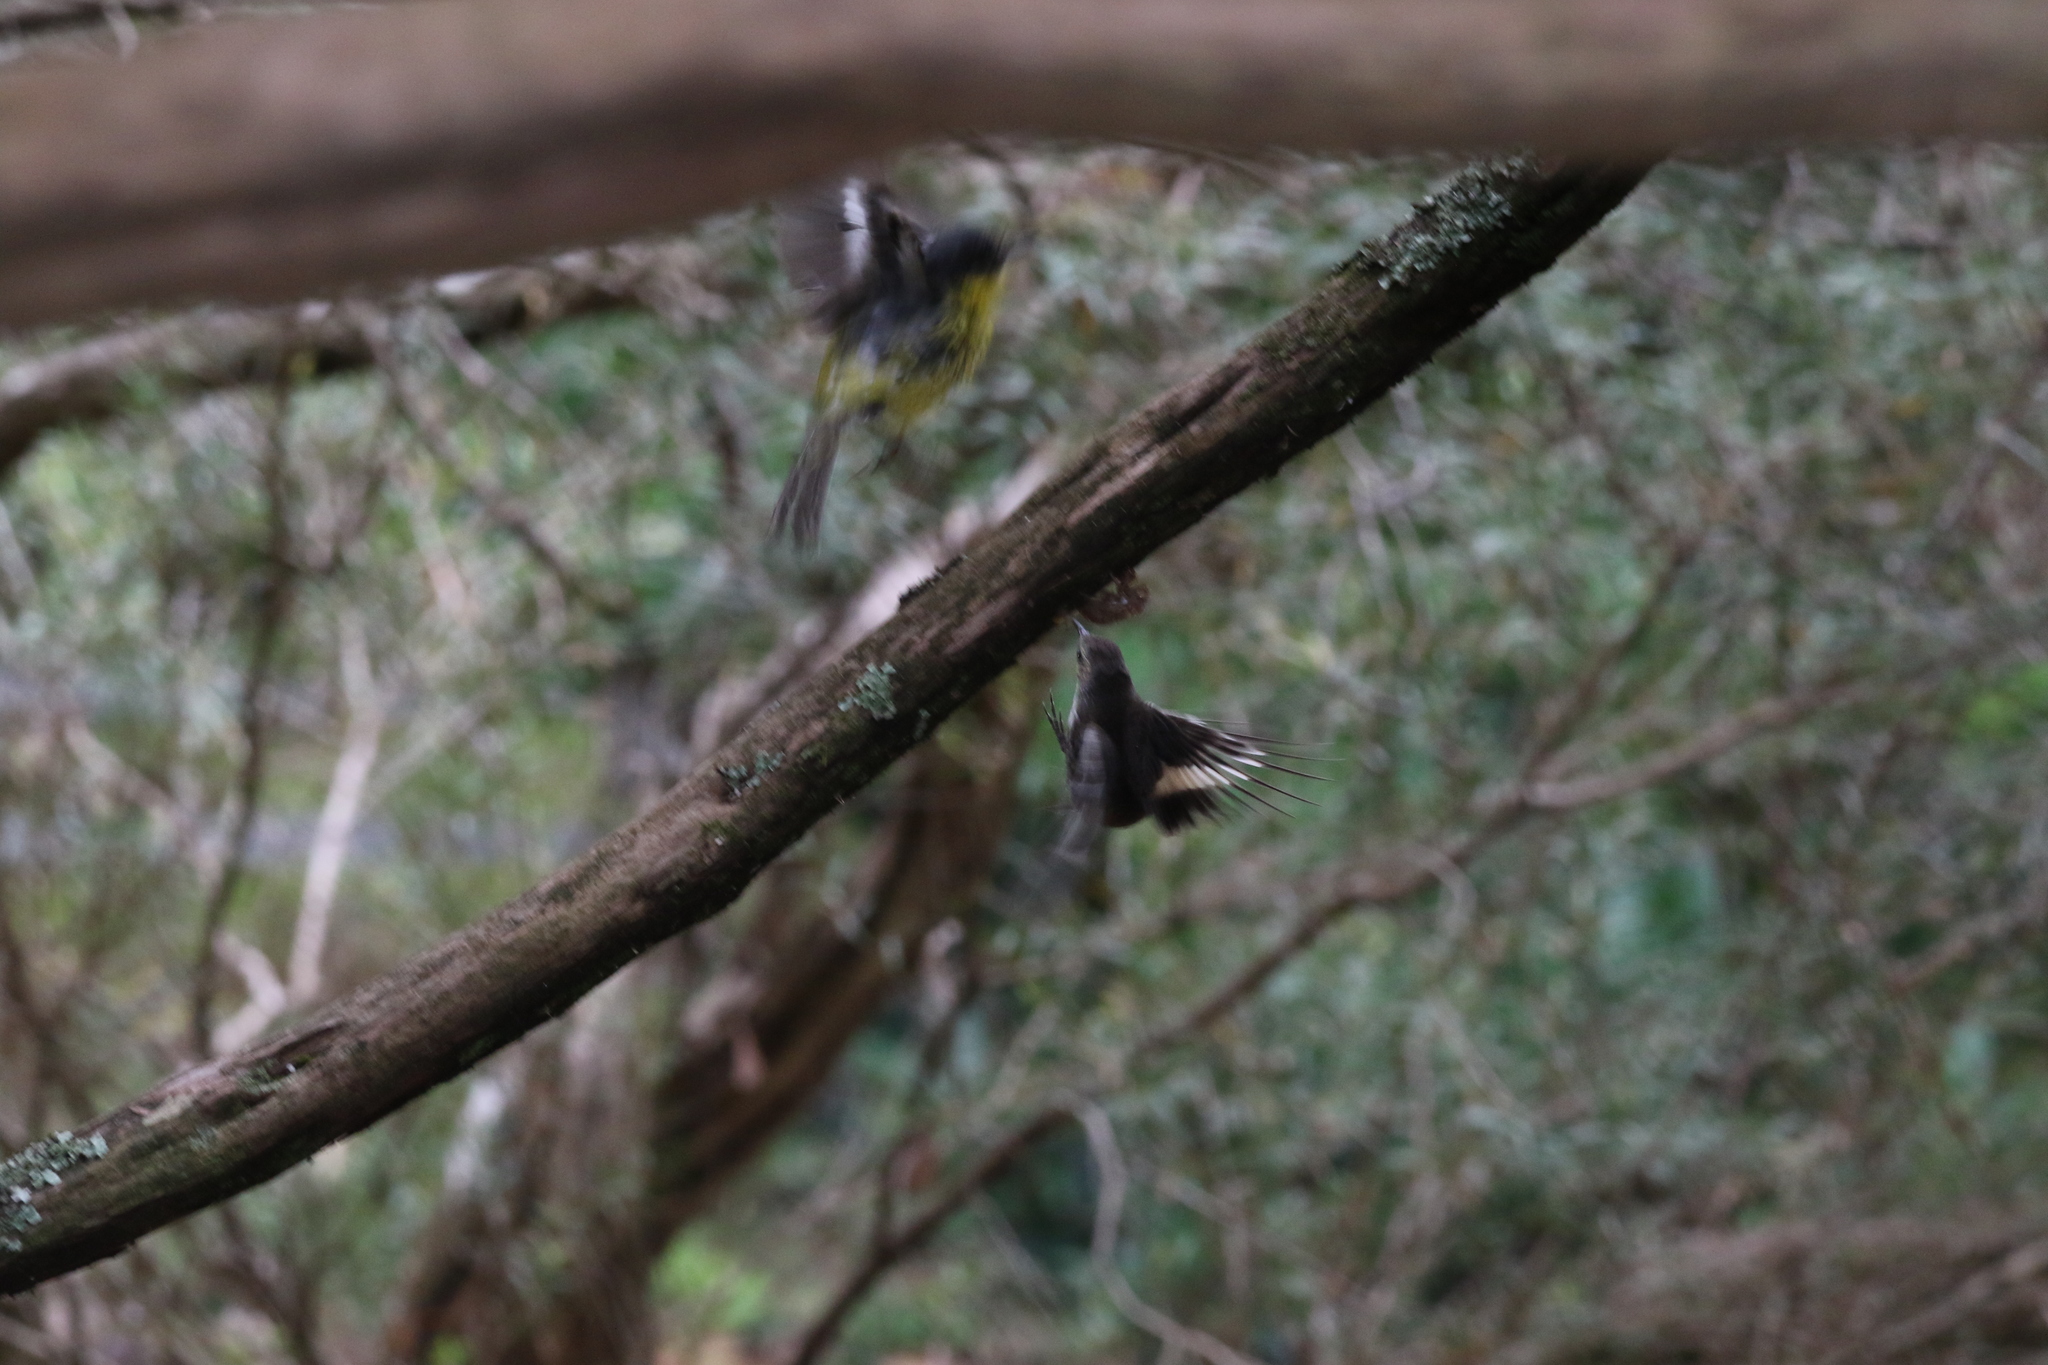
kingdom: Animalia
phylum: Chordata
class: Aves
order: Passeriformes
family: Petroicidae
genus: Eopsaltria
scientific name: Eopsaltria australis
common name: Eastern yellow robin
